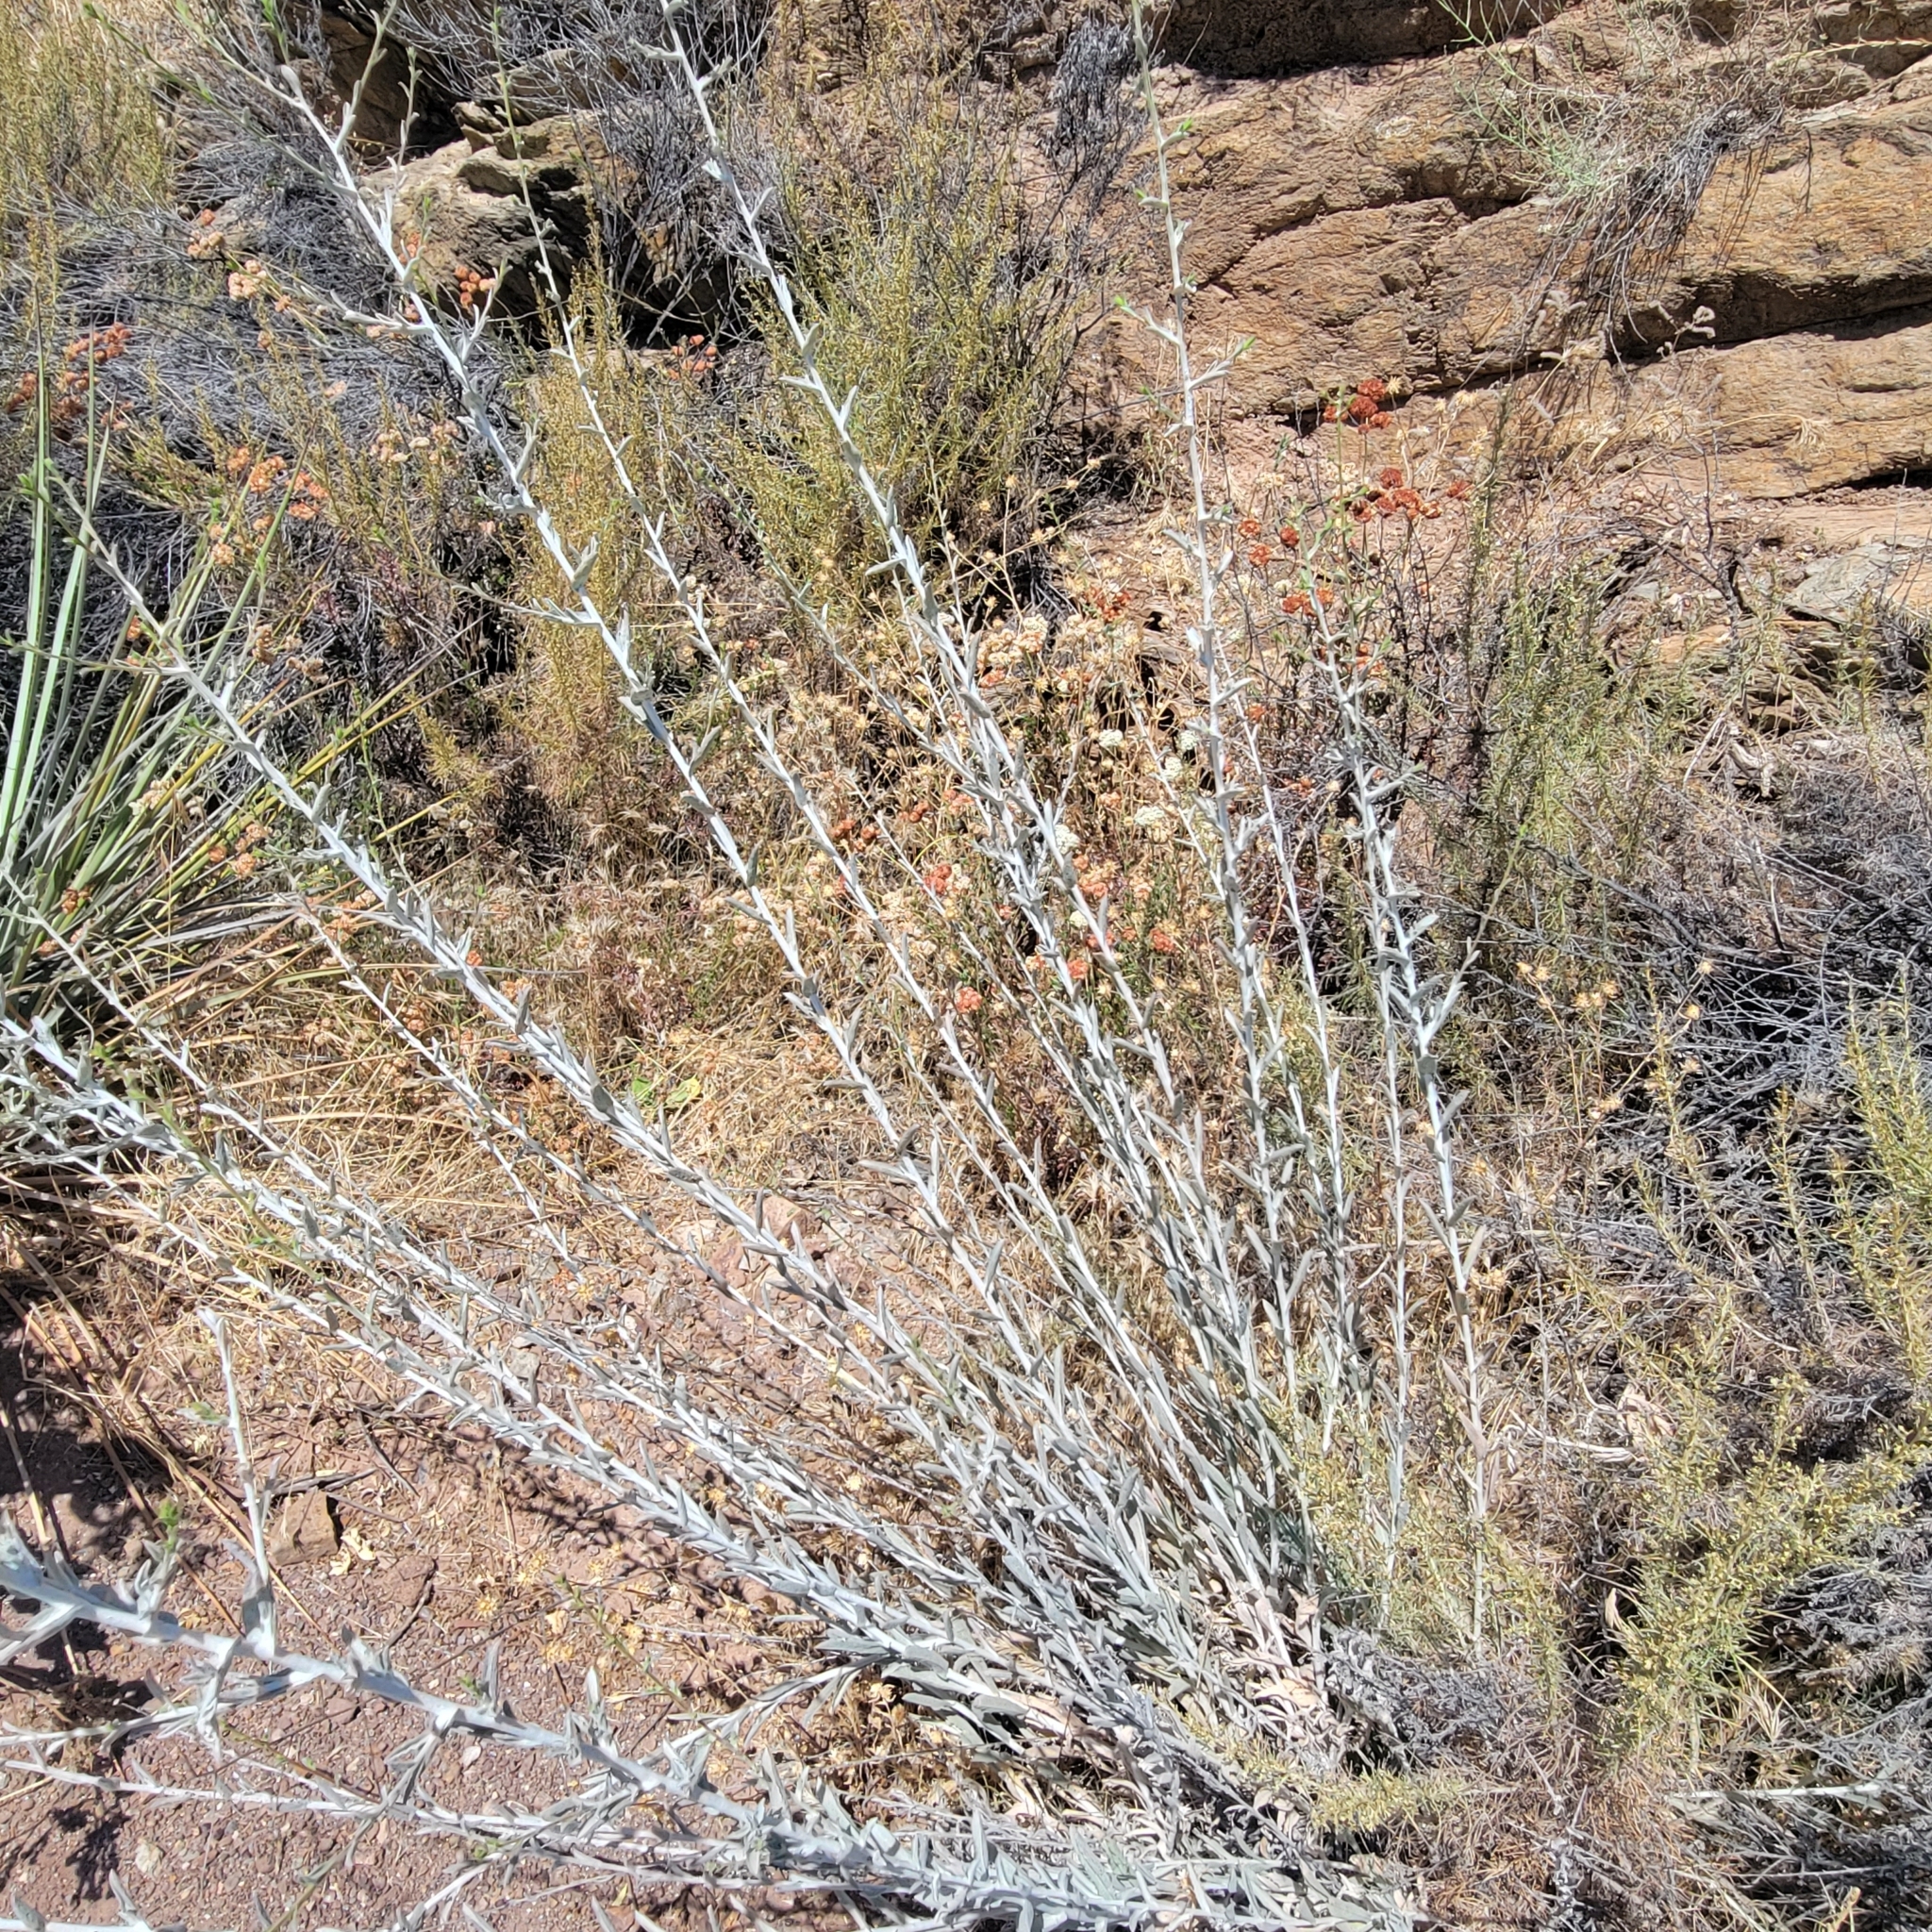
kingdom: Plantae
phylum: Tracheophyta
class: Magnoliopsida
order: Asterales
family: Asteraceae
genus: Corethrogyne
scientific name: Corethrogyne filaginifolia
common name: Sand-aster
